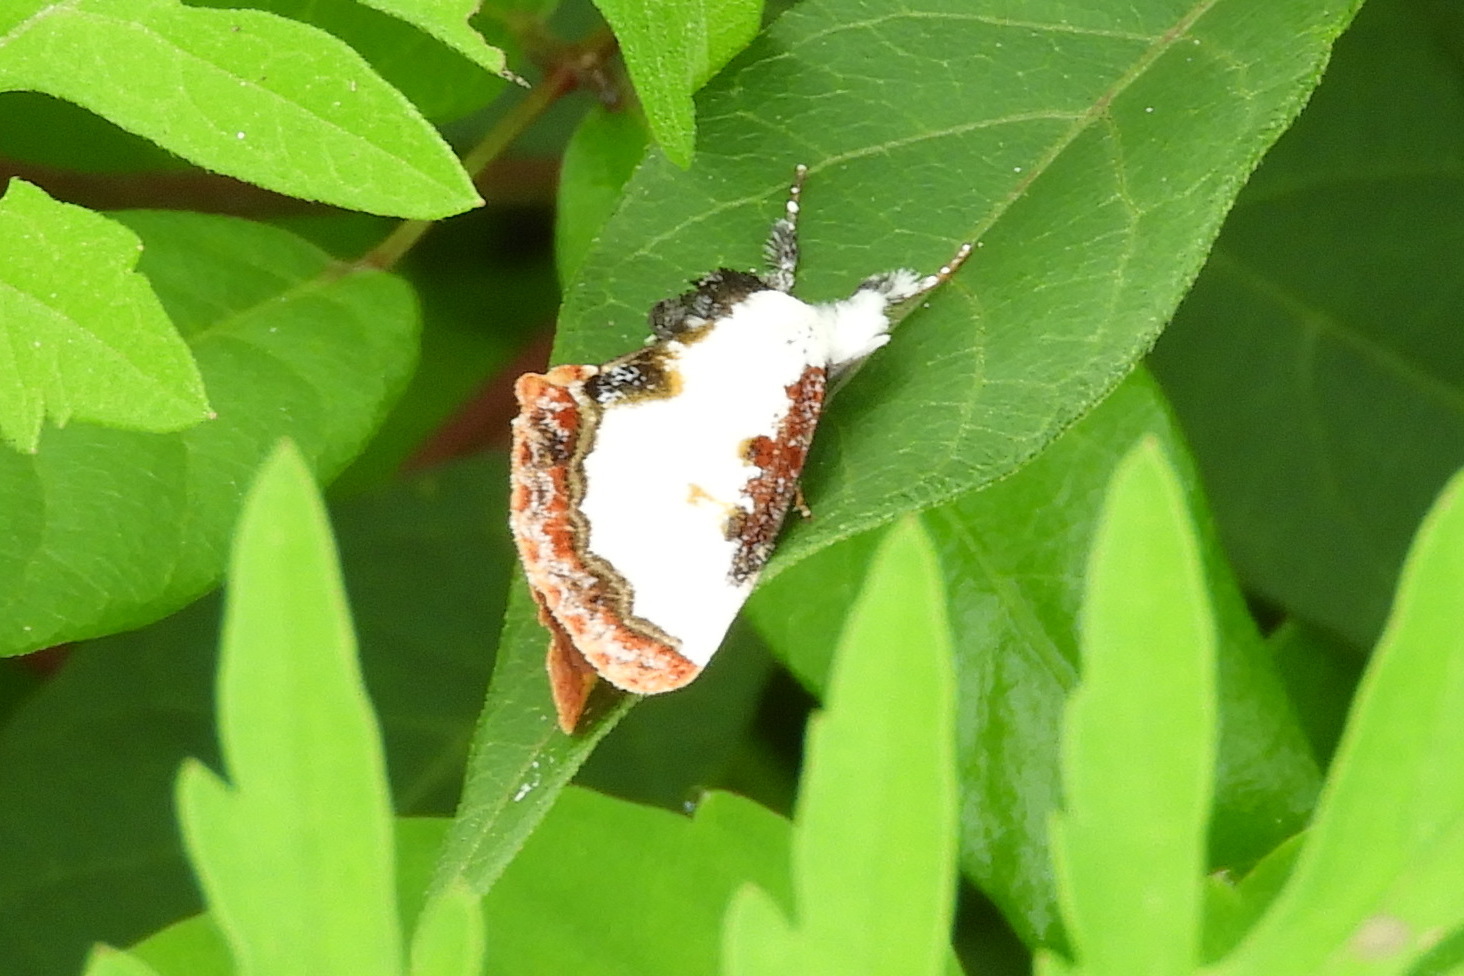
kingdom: Animalia
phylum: Arthropoda
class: Insecta
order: Lepidoptera
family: Noctuidae
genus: Eudryas
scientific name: Eudryas unio
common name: Pearly wood-nymph
